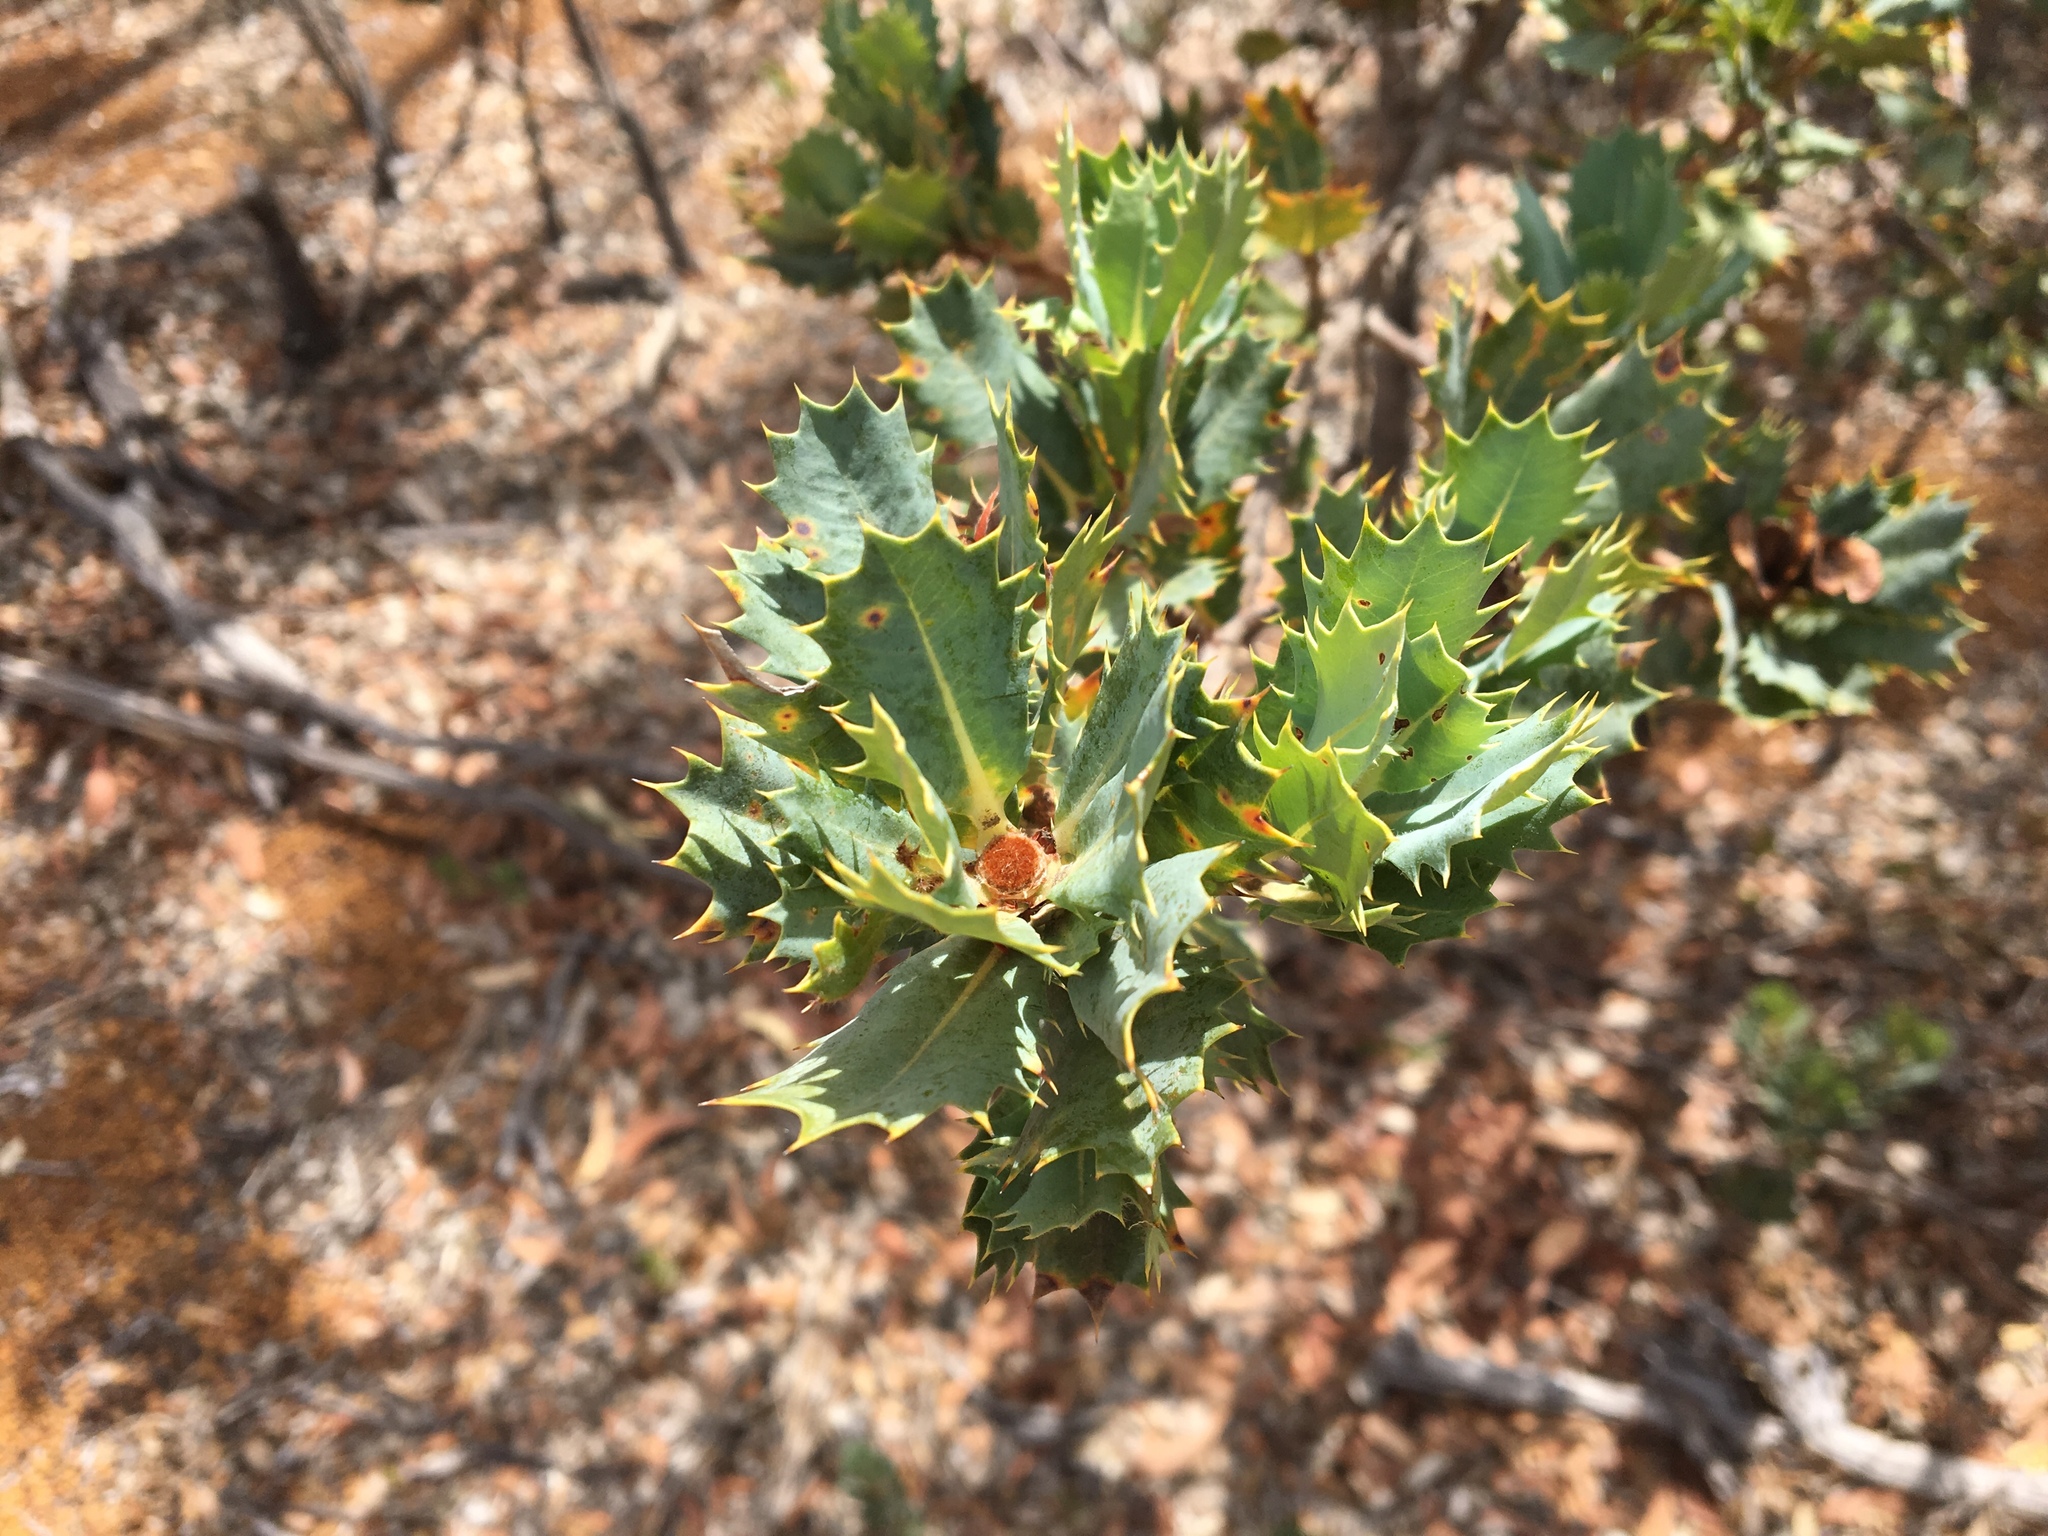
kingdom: Plantae
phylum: Tracheophyta
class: Magnoliopsida
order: Proteales
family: Proteaceae
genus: Banksia
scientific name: Banksia sessilis
